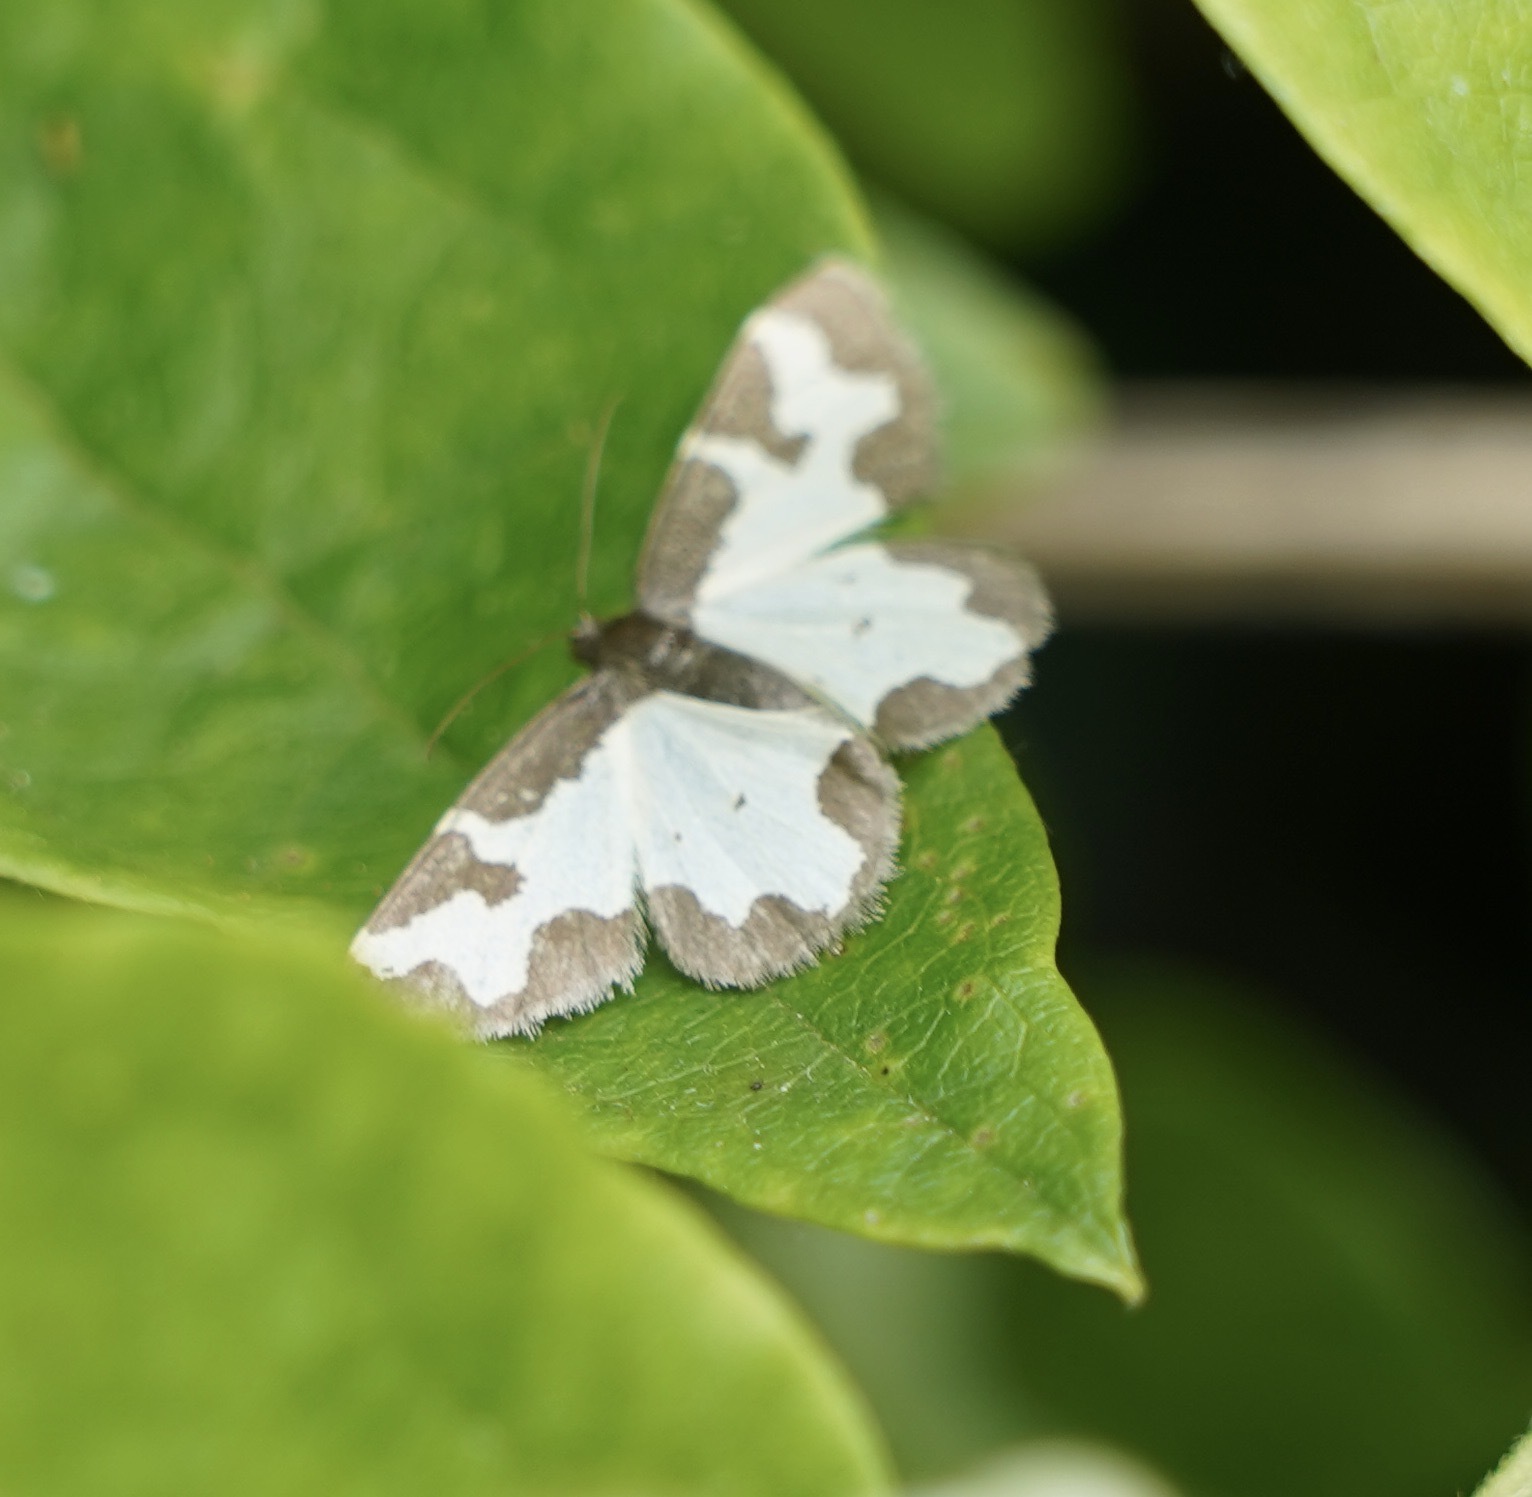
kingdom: Animalia
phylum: Arthropoda
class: Insecta
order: Lepidoptera
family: Geometridae
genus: Lomaspilis
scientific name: Lomaspilis marginata
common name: Clouded border
